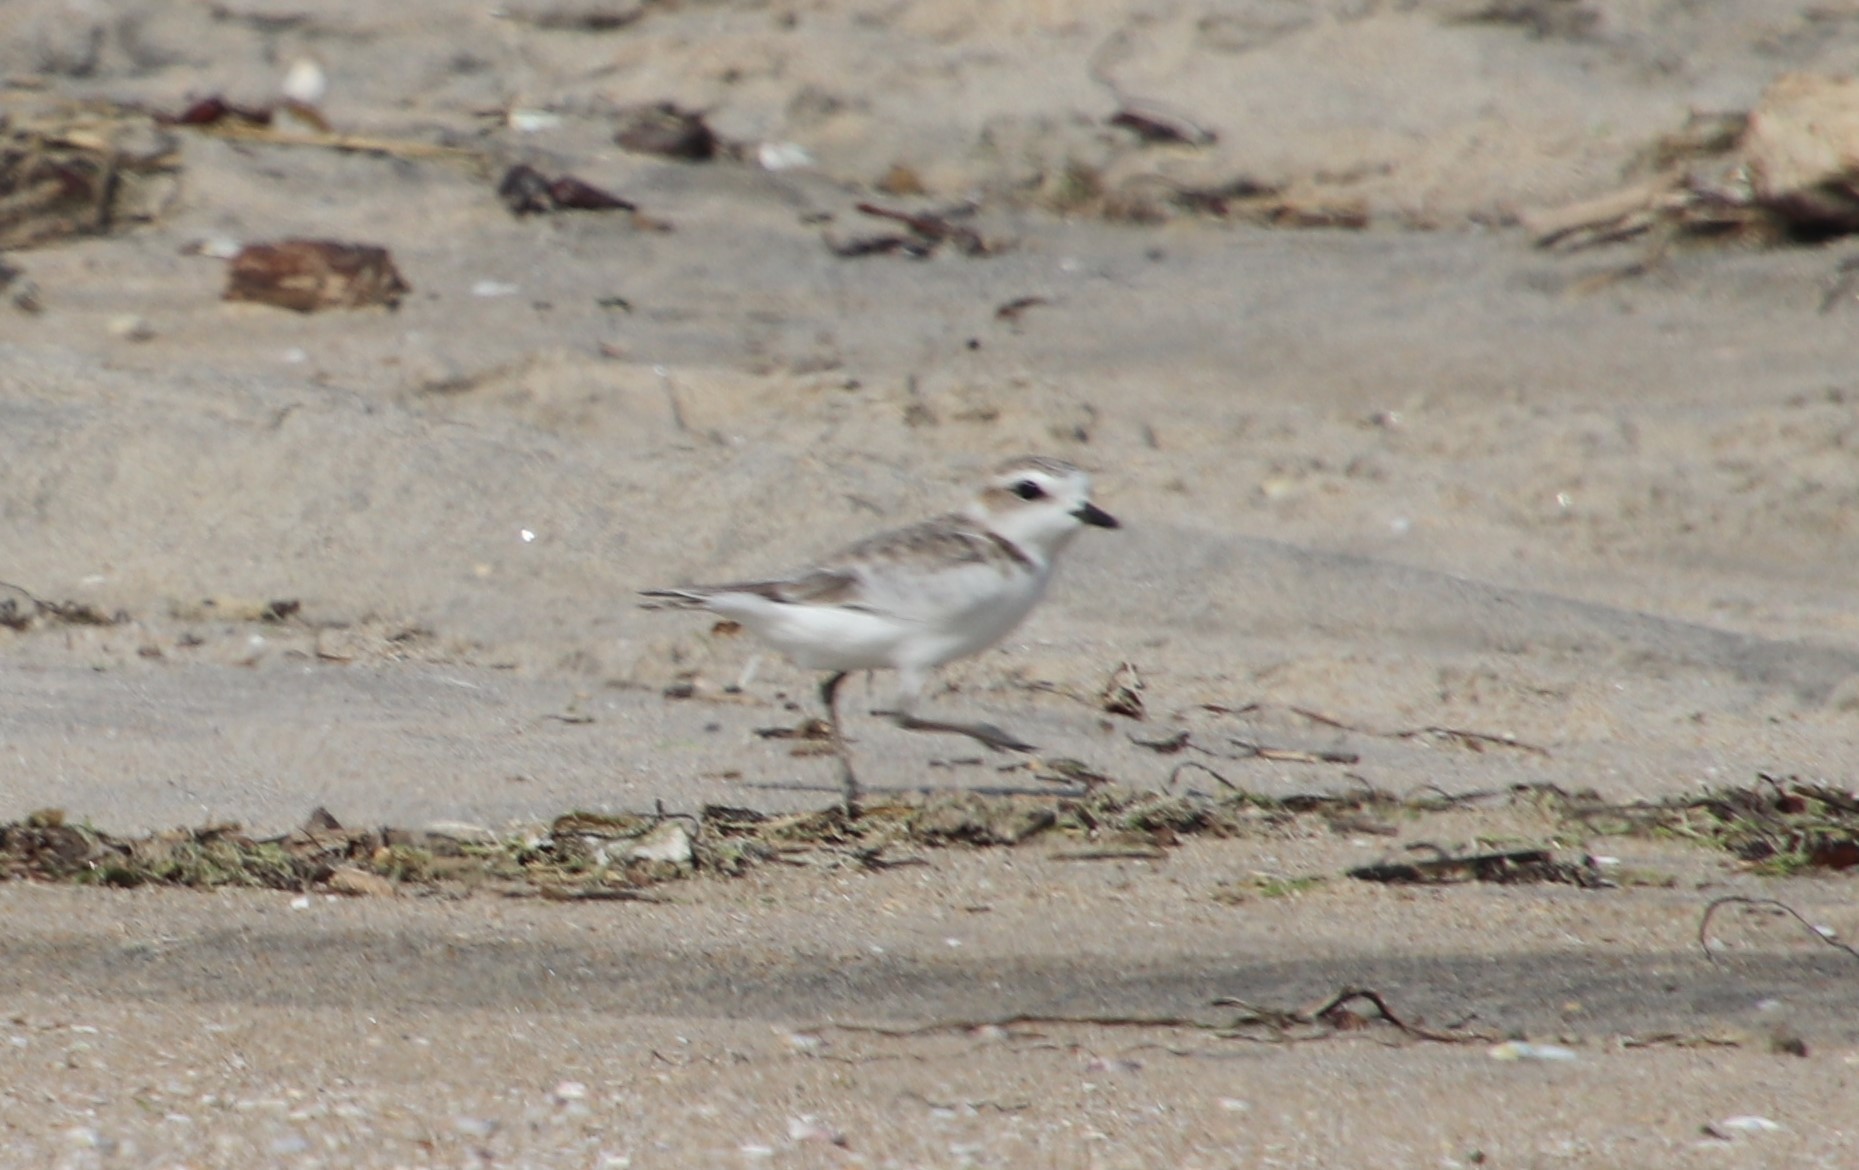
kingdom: Animalia
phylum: Chordata
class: Aves
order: Charadriiformes
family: Charadriidae
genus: Anarhynchus
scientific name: Anarhynchus
